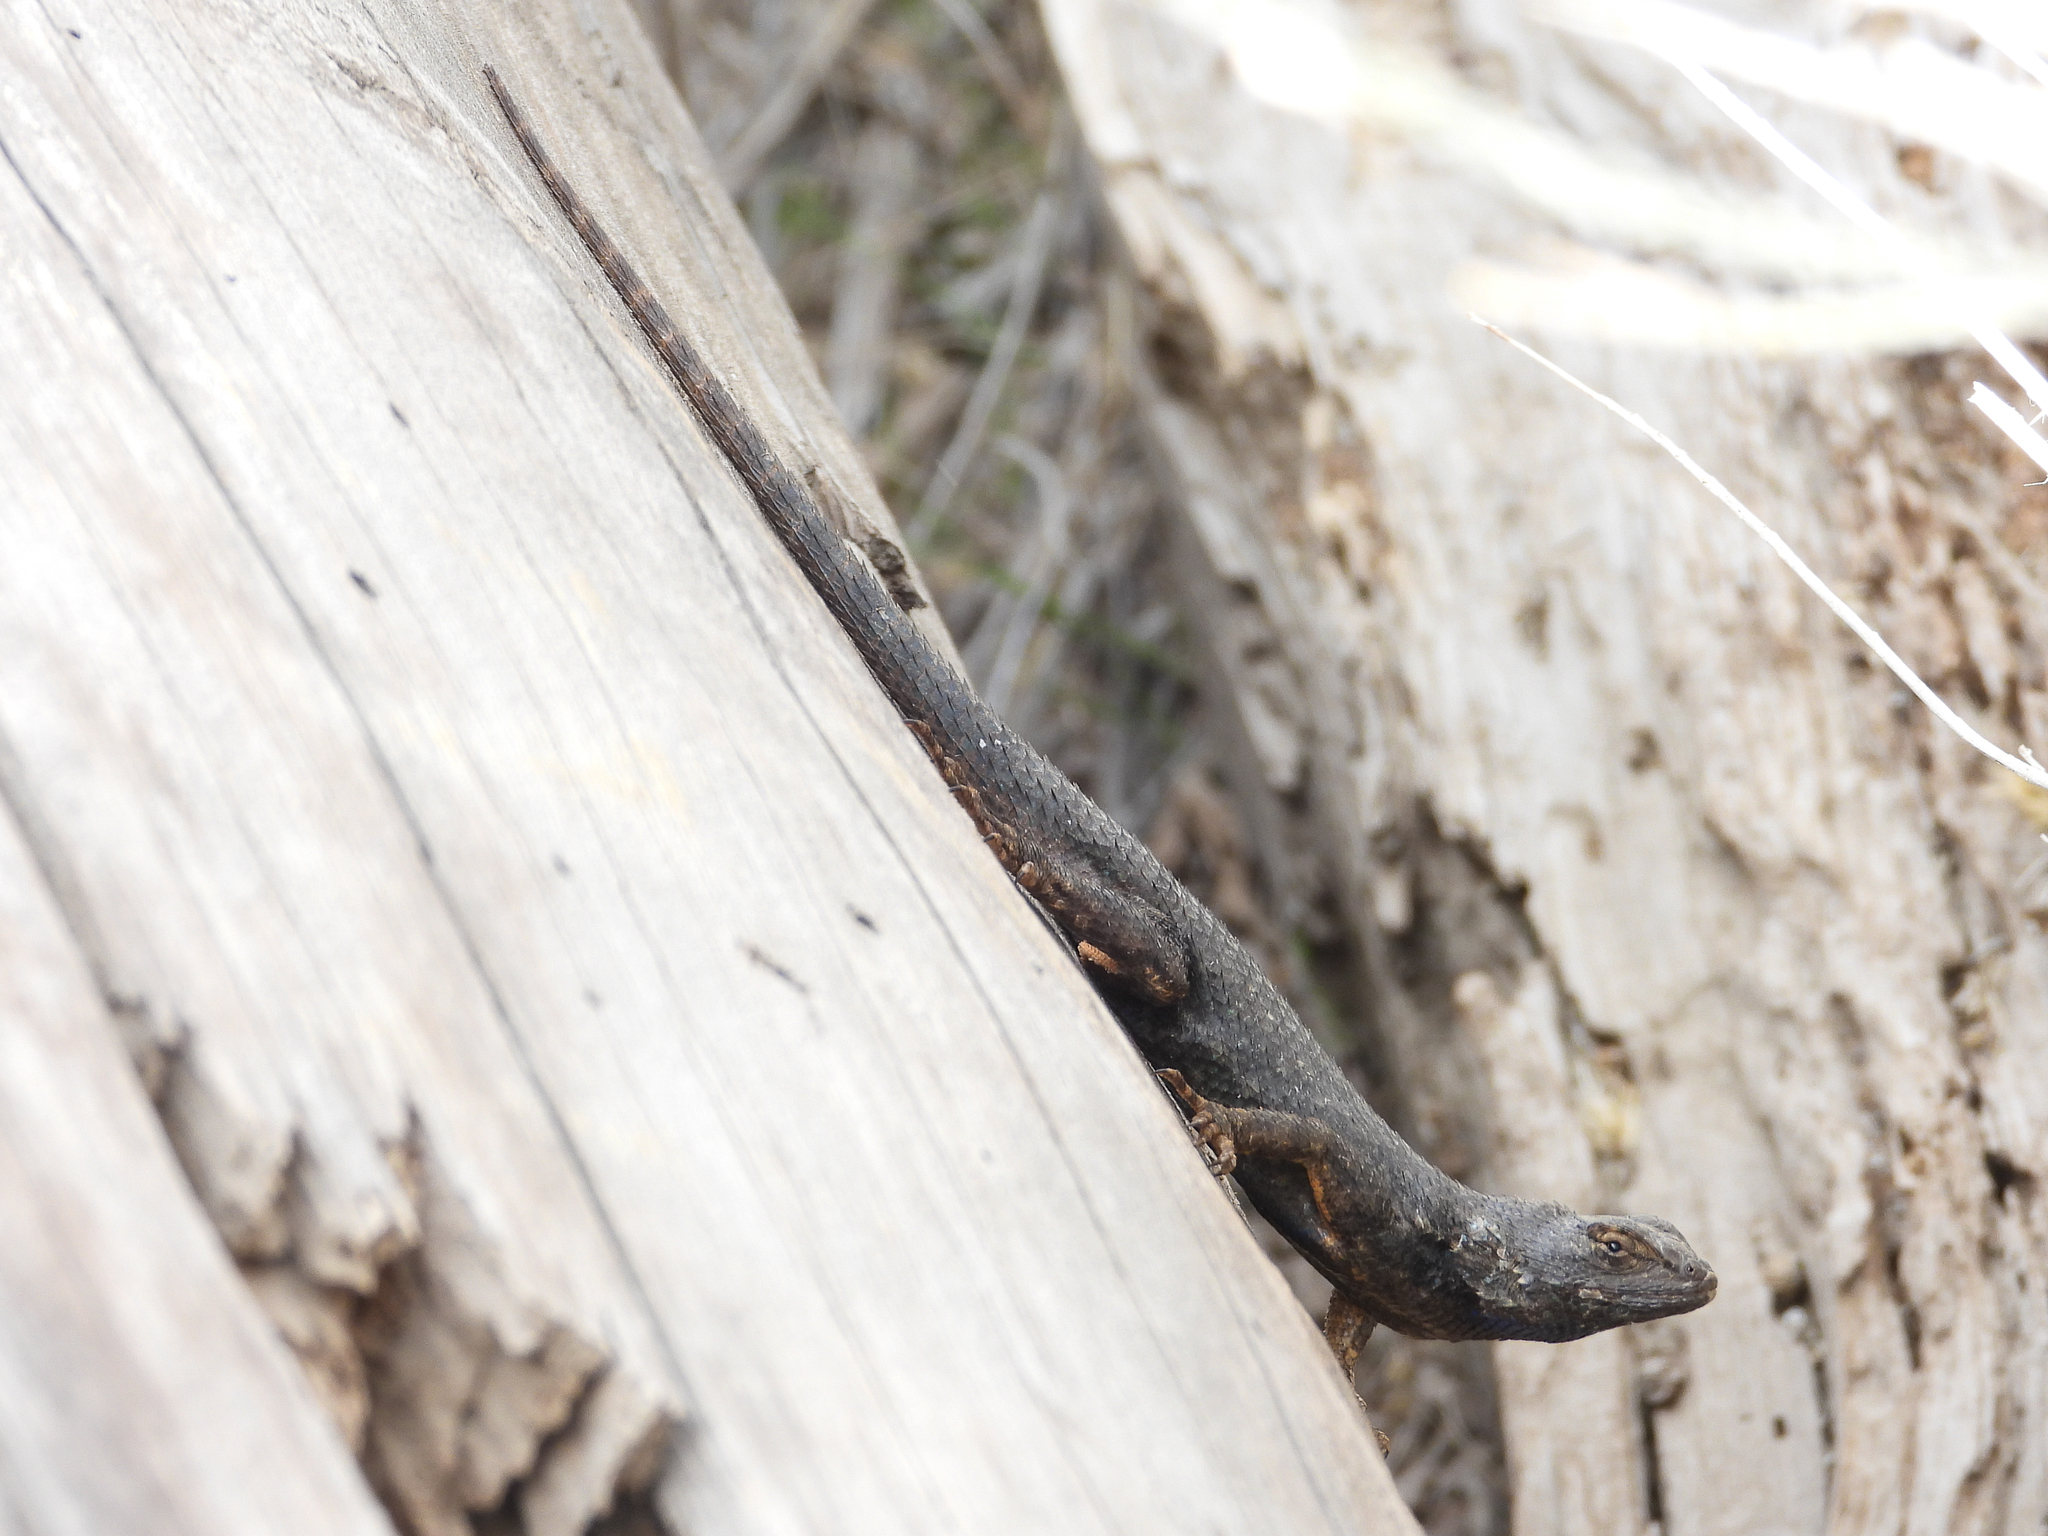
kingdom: Animalia
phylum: Chordata
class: Squamata
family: Phrynosomatidae
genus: Sceloporus
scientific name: Sceloporus occidentalis
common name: Western fence lizard
